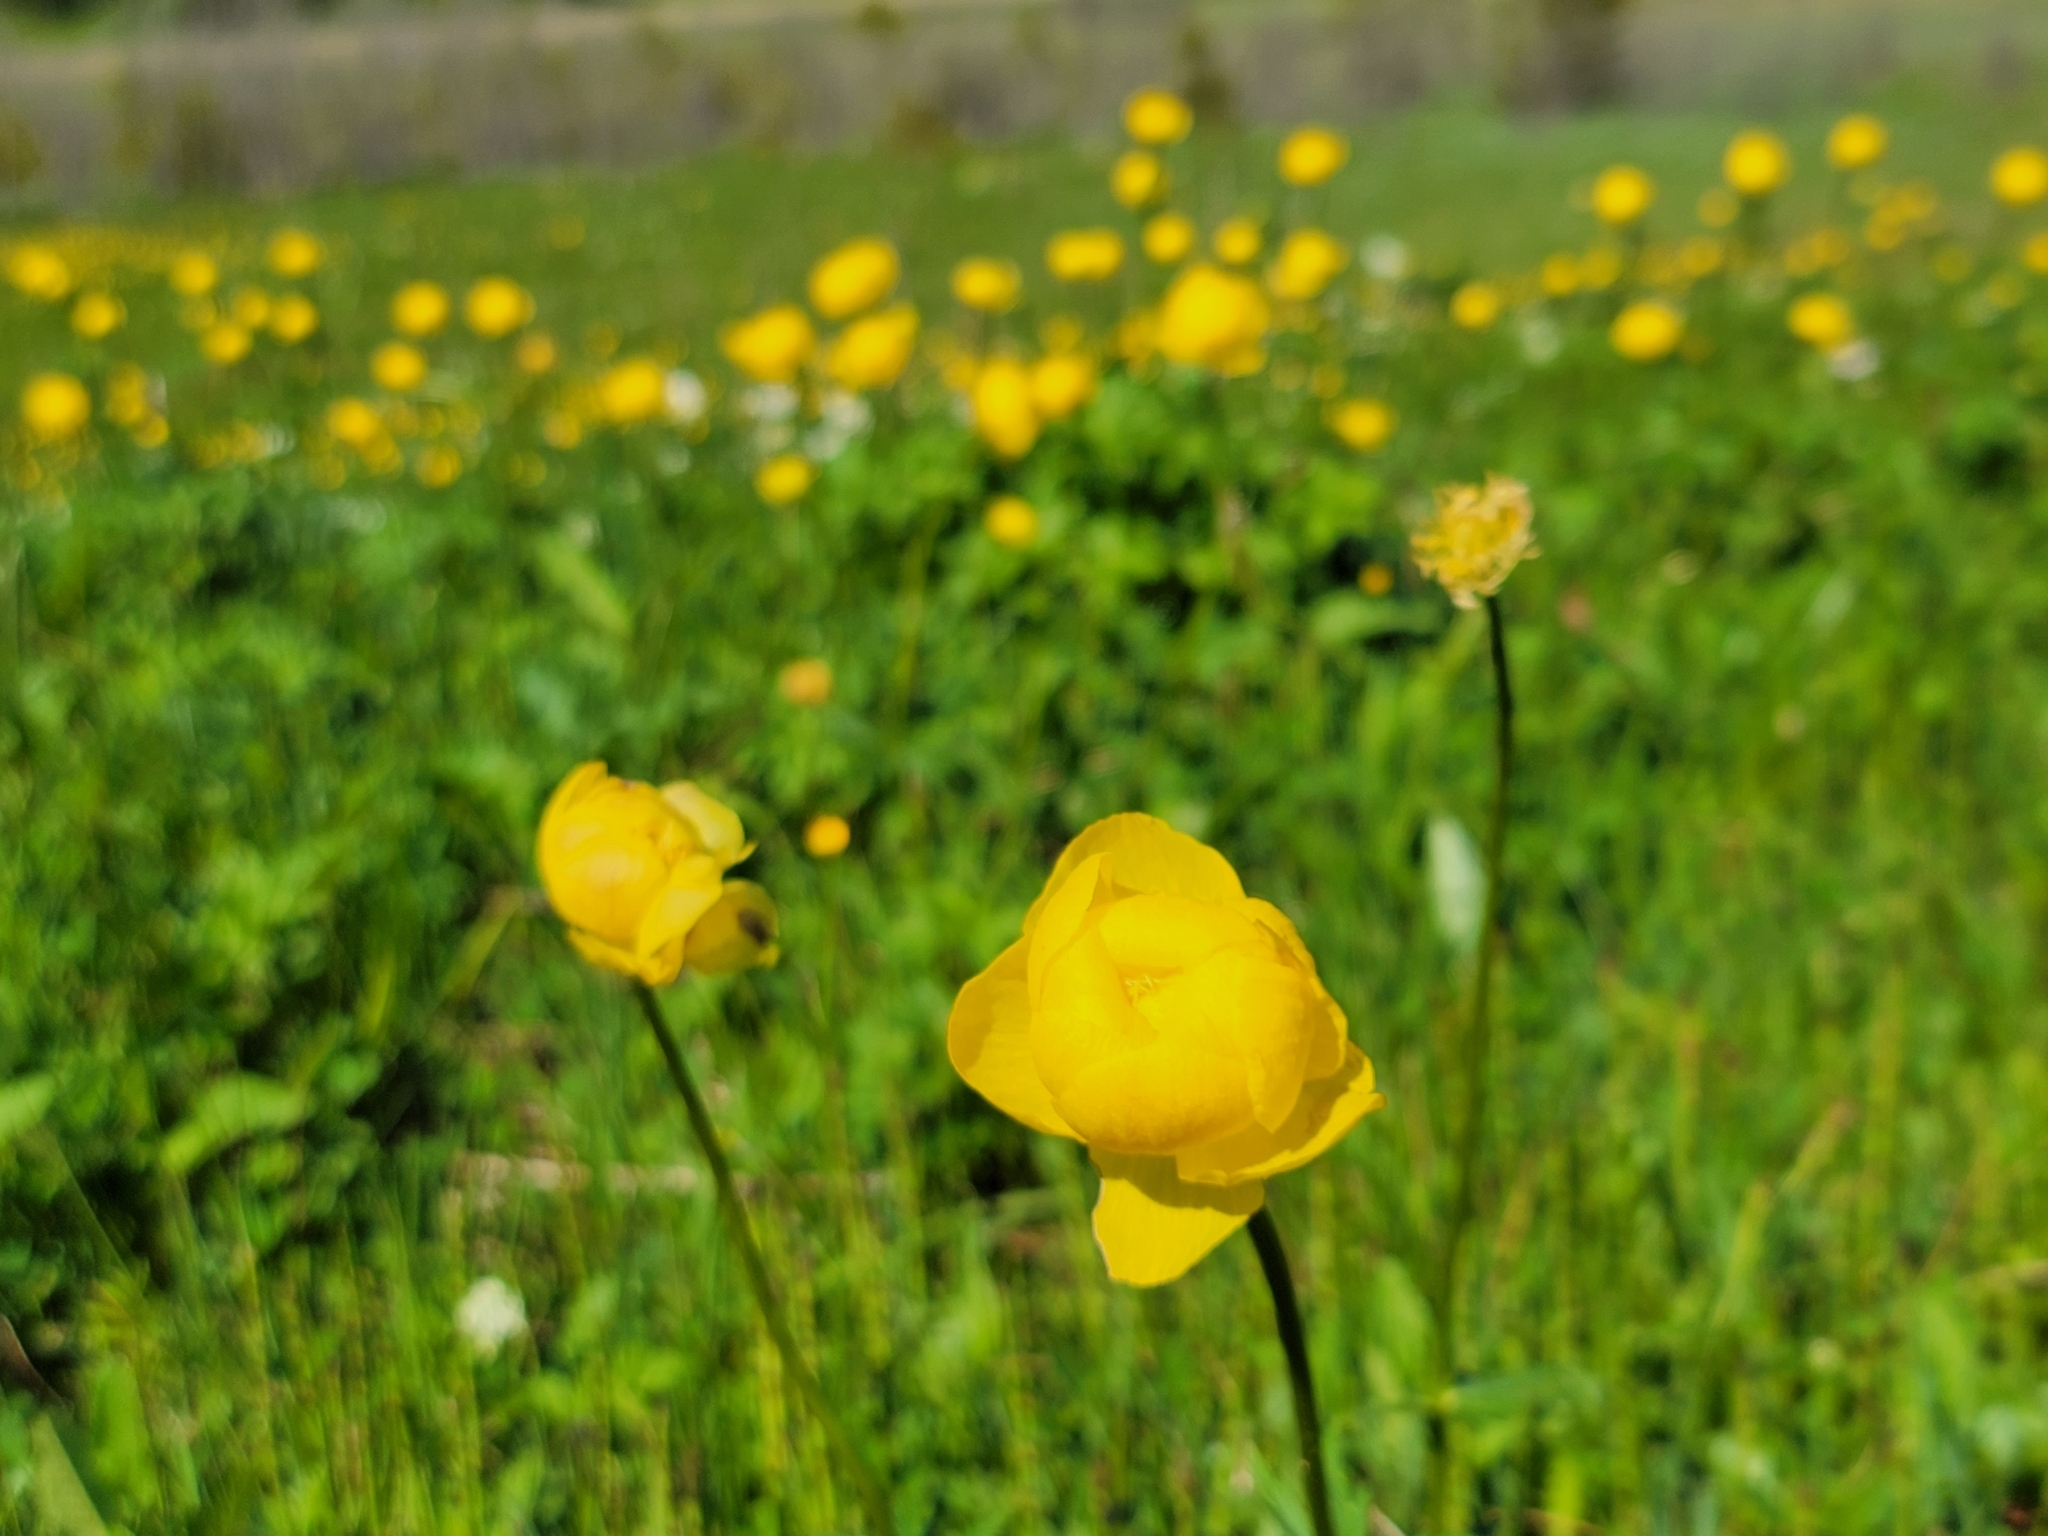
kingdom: Plantae
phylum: Tracheophyta
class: Magnoliopsida
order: Ranunculales
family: Ranunculaceae
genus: Trollius
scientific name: Trollius europaeus
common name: European globeflower
